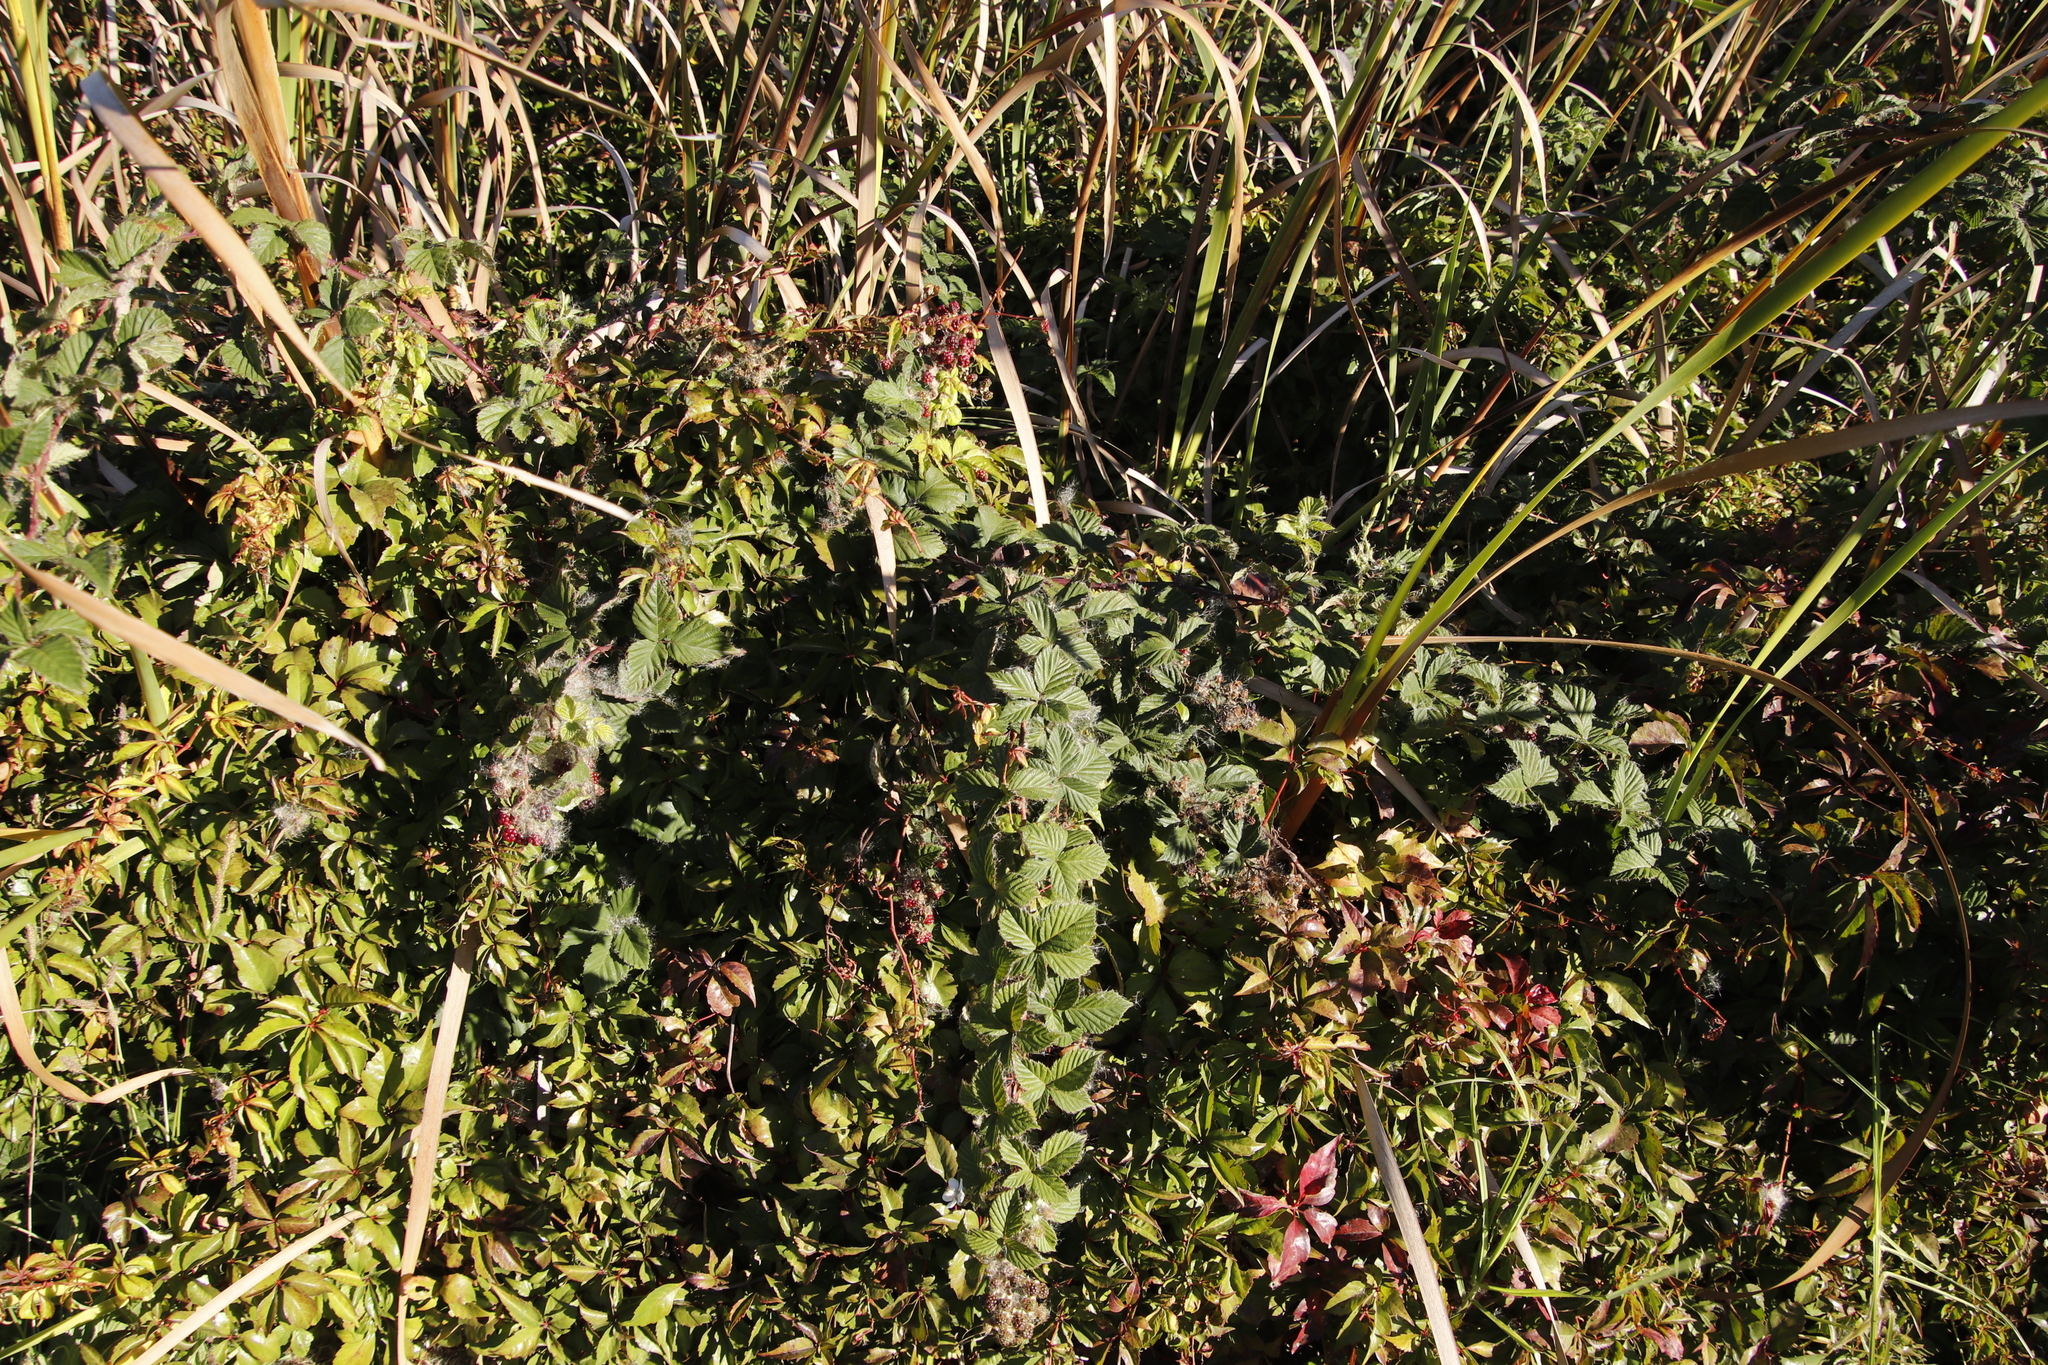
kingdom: Plantae
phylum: Tracheophyta
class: Magnoliopsida
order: Rosales
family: Rosaceae
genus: Rubus
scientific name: Rubus affinis
